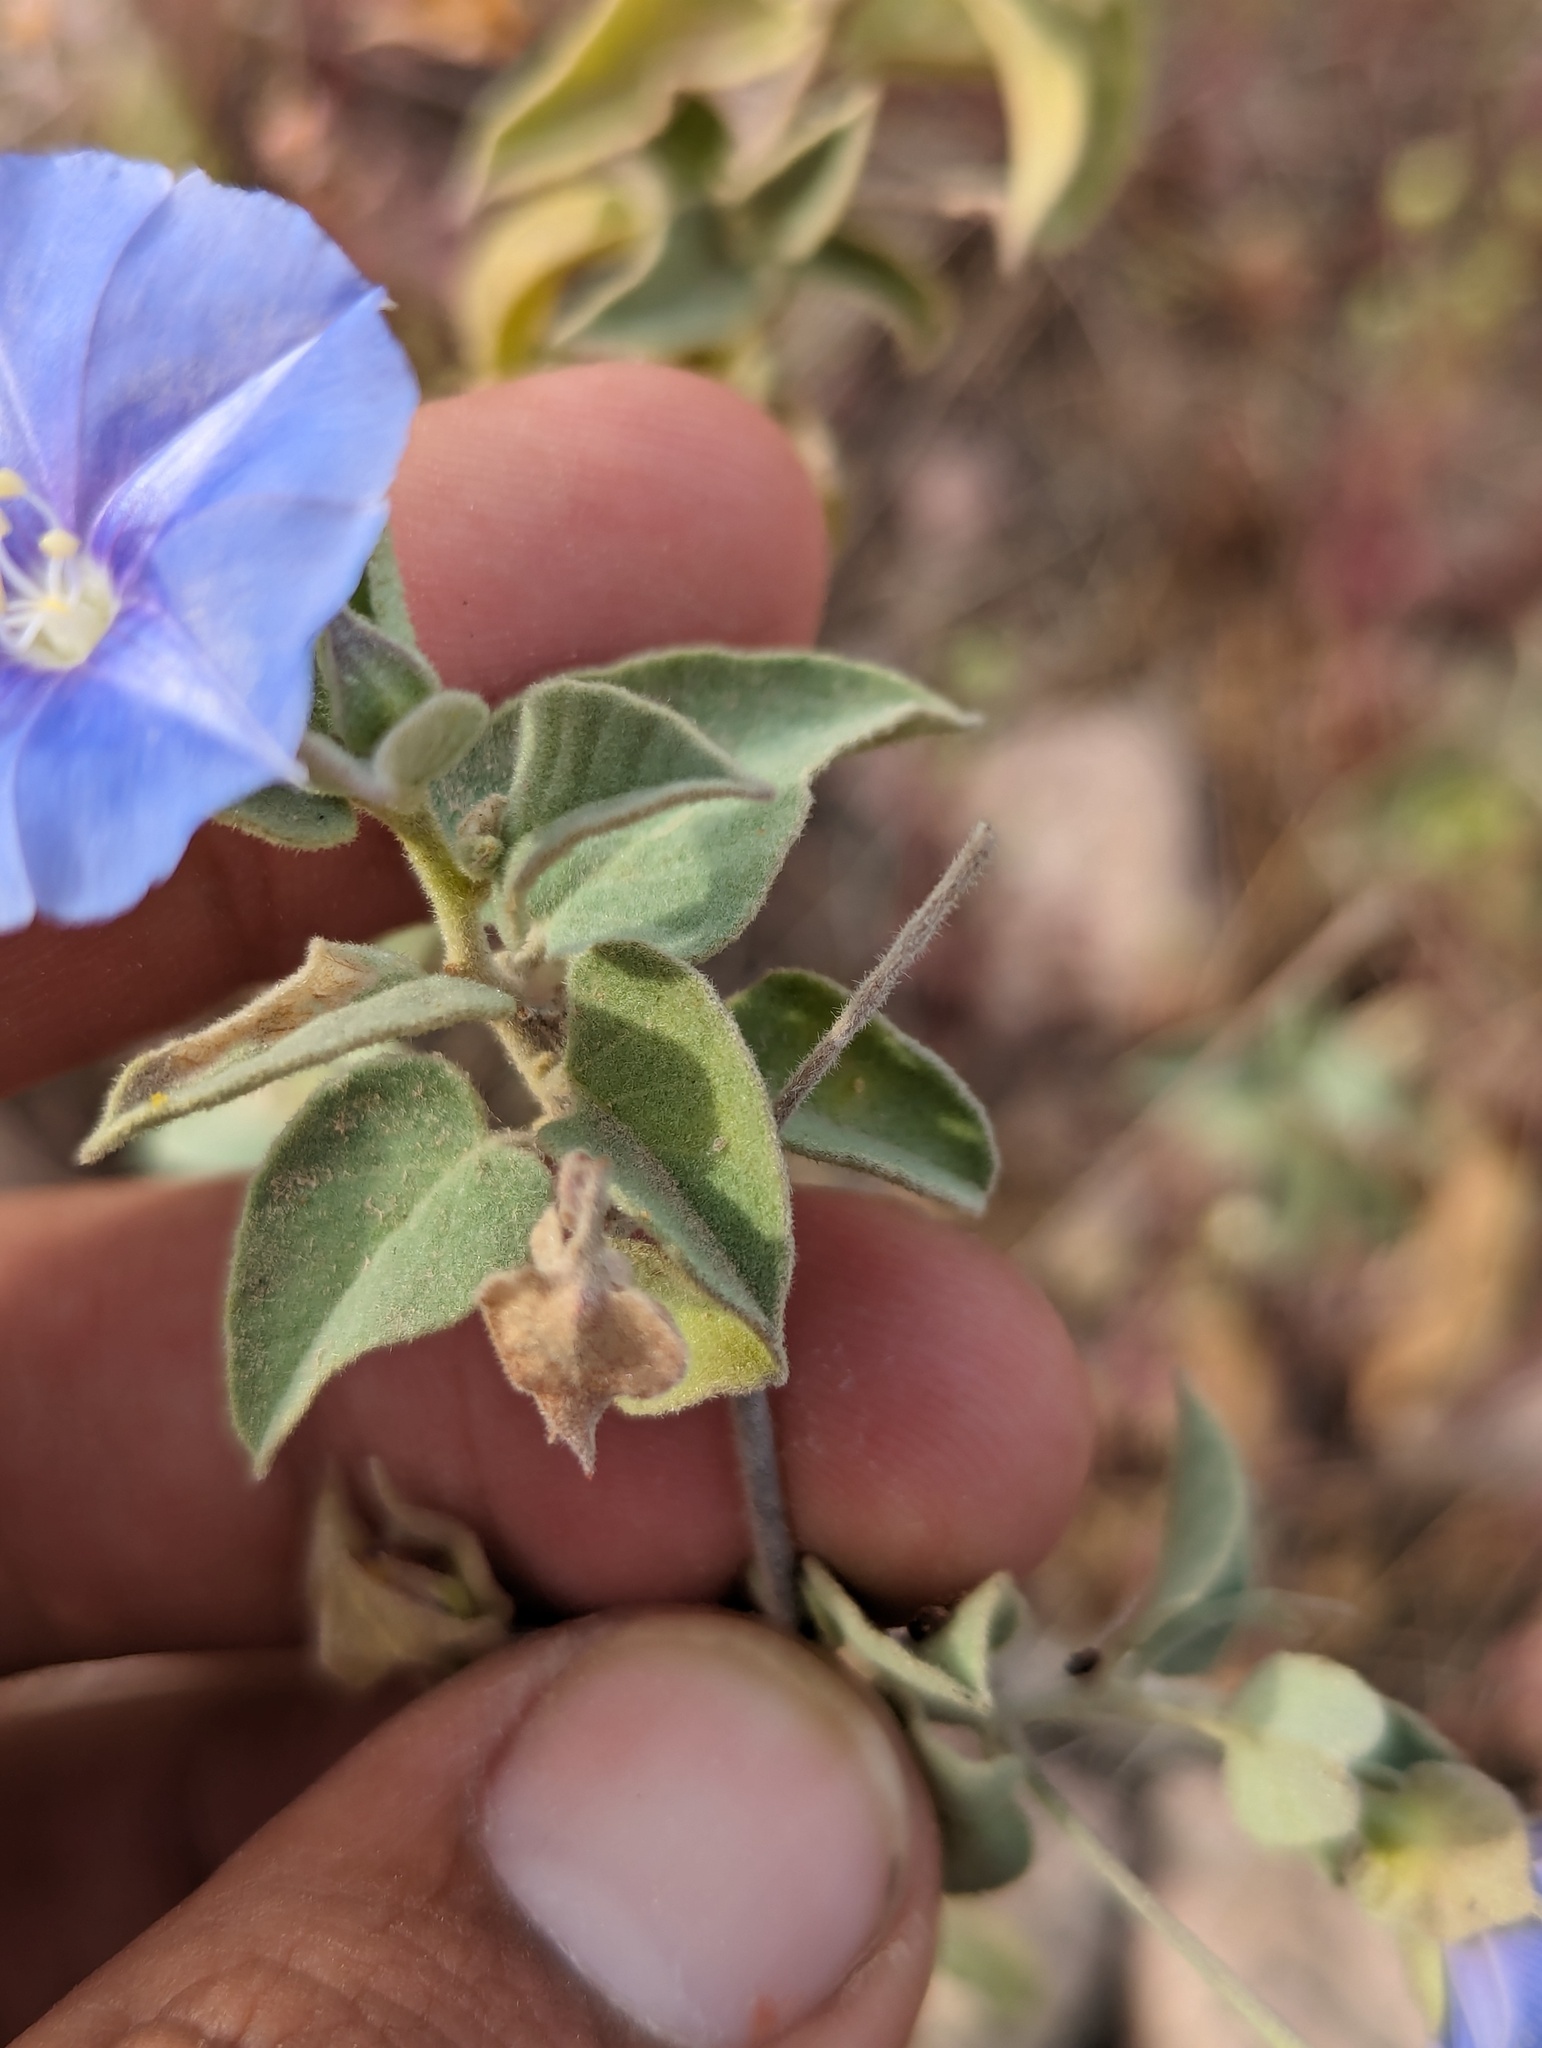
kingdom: Plantae
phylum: Tracheophyta
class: Magnoliopsida
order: Solanales
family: Convolvulaceae
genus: Jacquemontia
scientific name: Jacquemontia abutiloides
